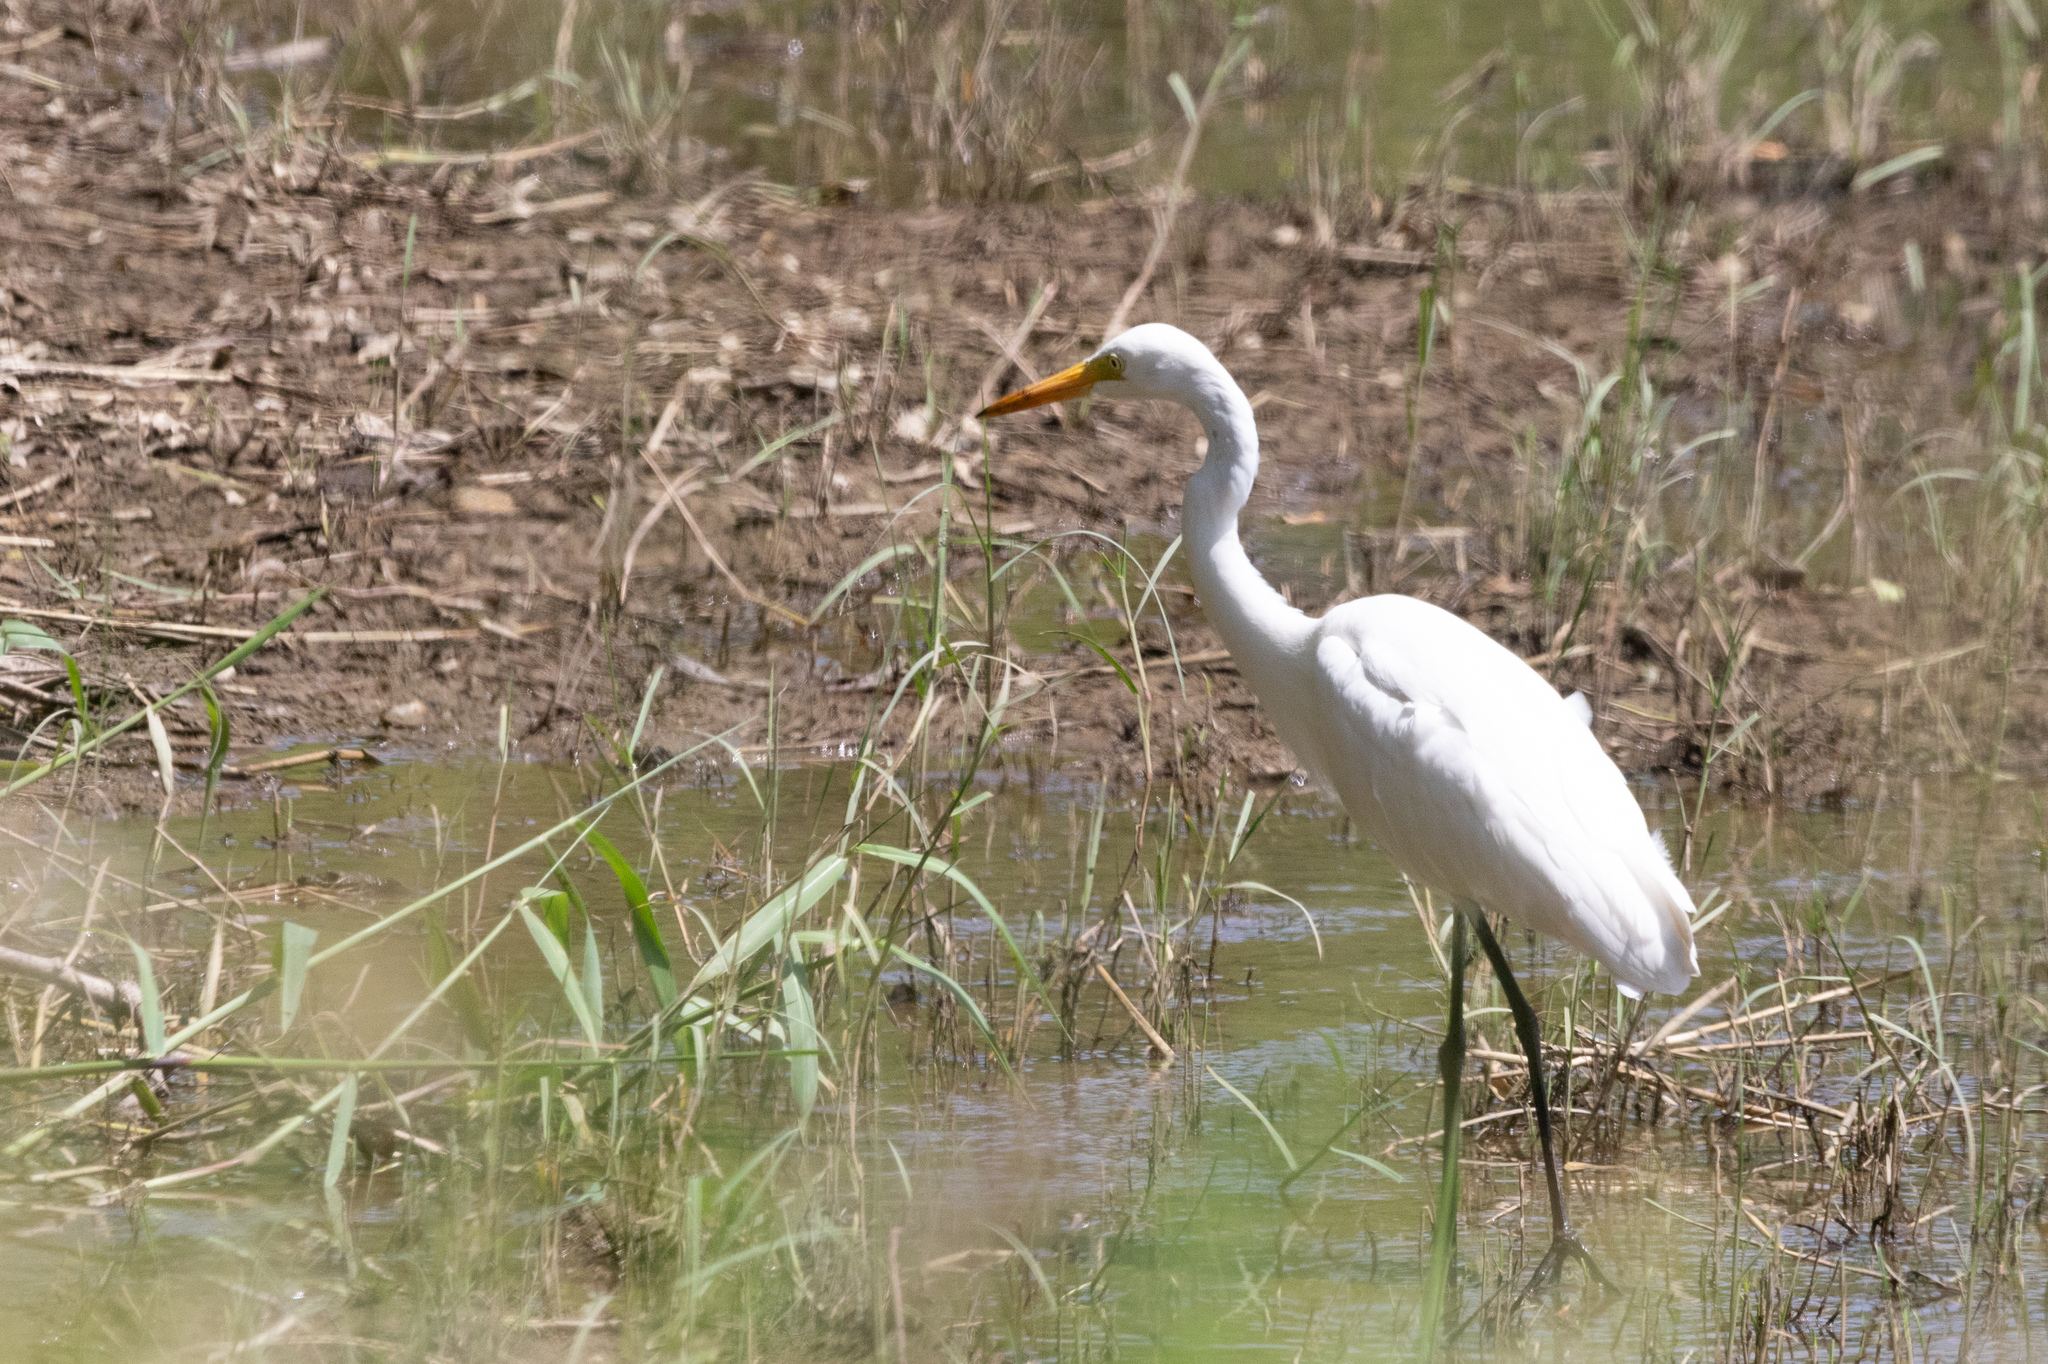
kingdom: Animalia
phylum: Chordata
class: Aves
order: Pelecaniformes
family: Ardeidae
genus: Egretta
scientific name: Egretta intermedia
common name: Intermediate egret
